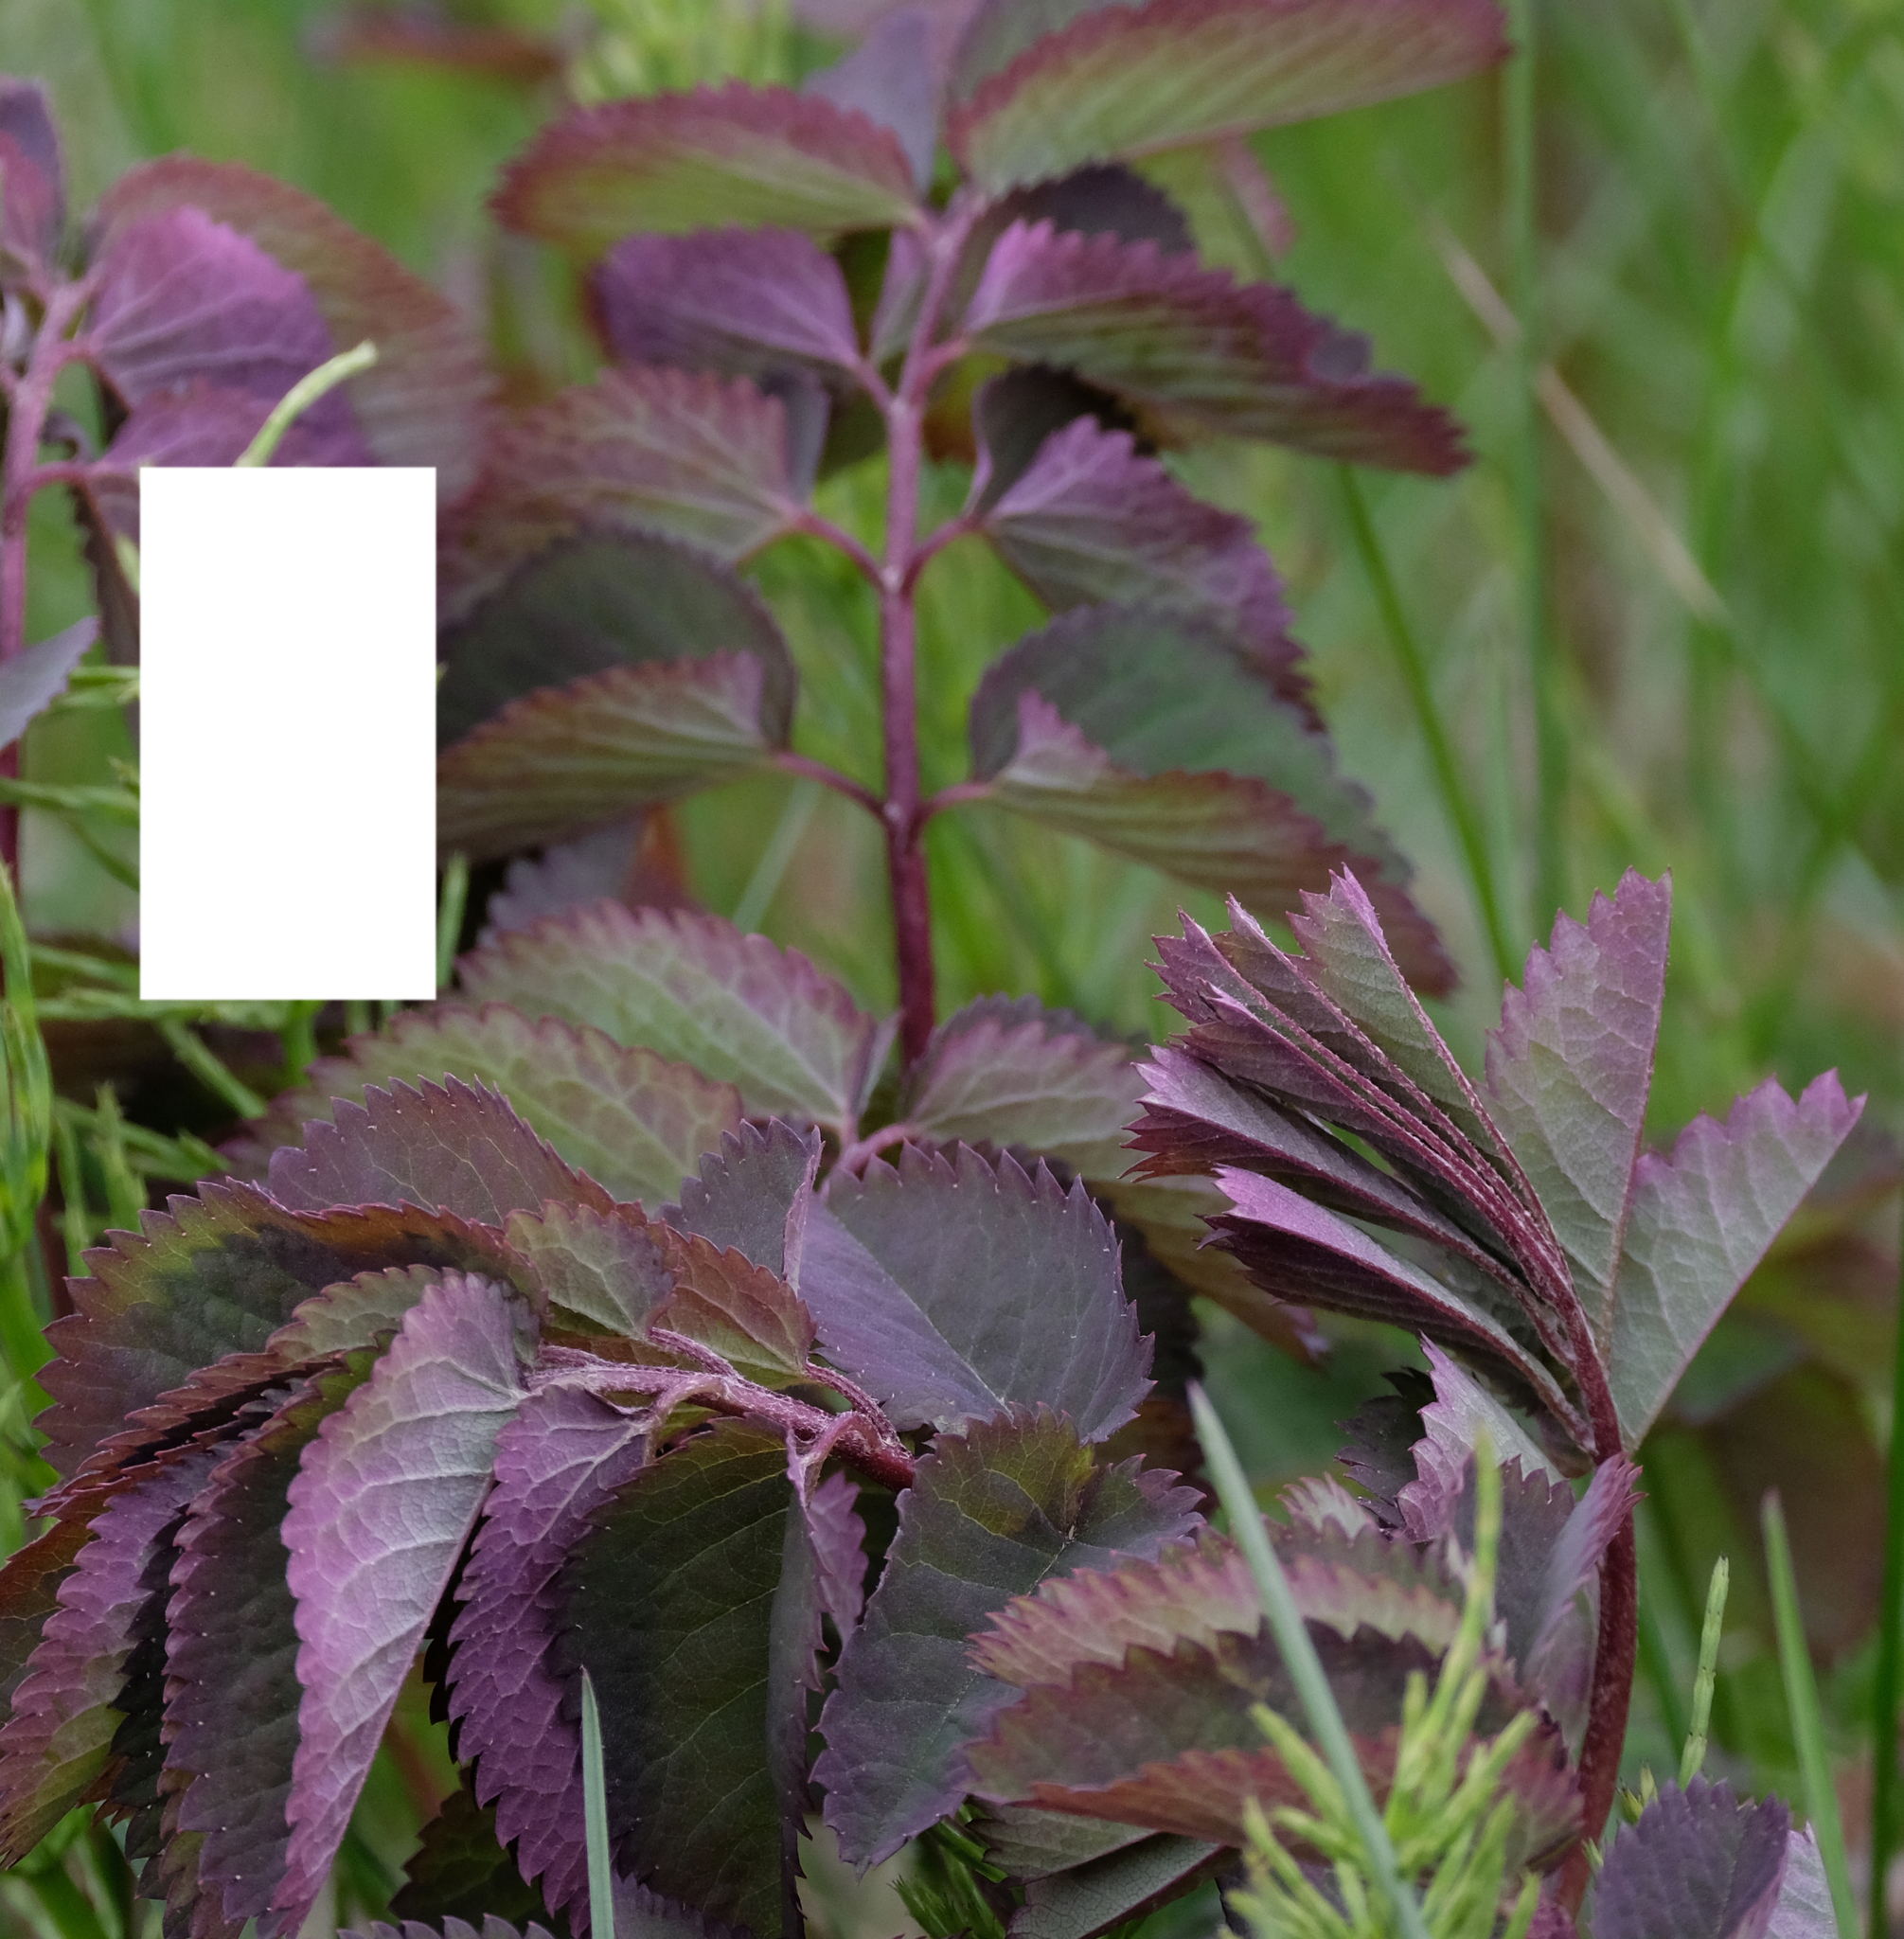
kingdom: Plantae
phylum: Tracheophyta
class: Magnoliopsida
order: Rosales
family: Rosaceae
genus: Sanguisorba
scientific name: Sanguisorba stipulata
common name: Sitka burnet
